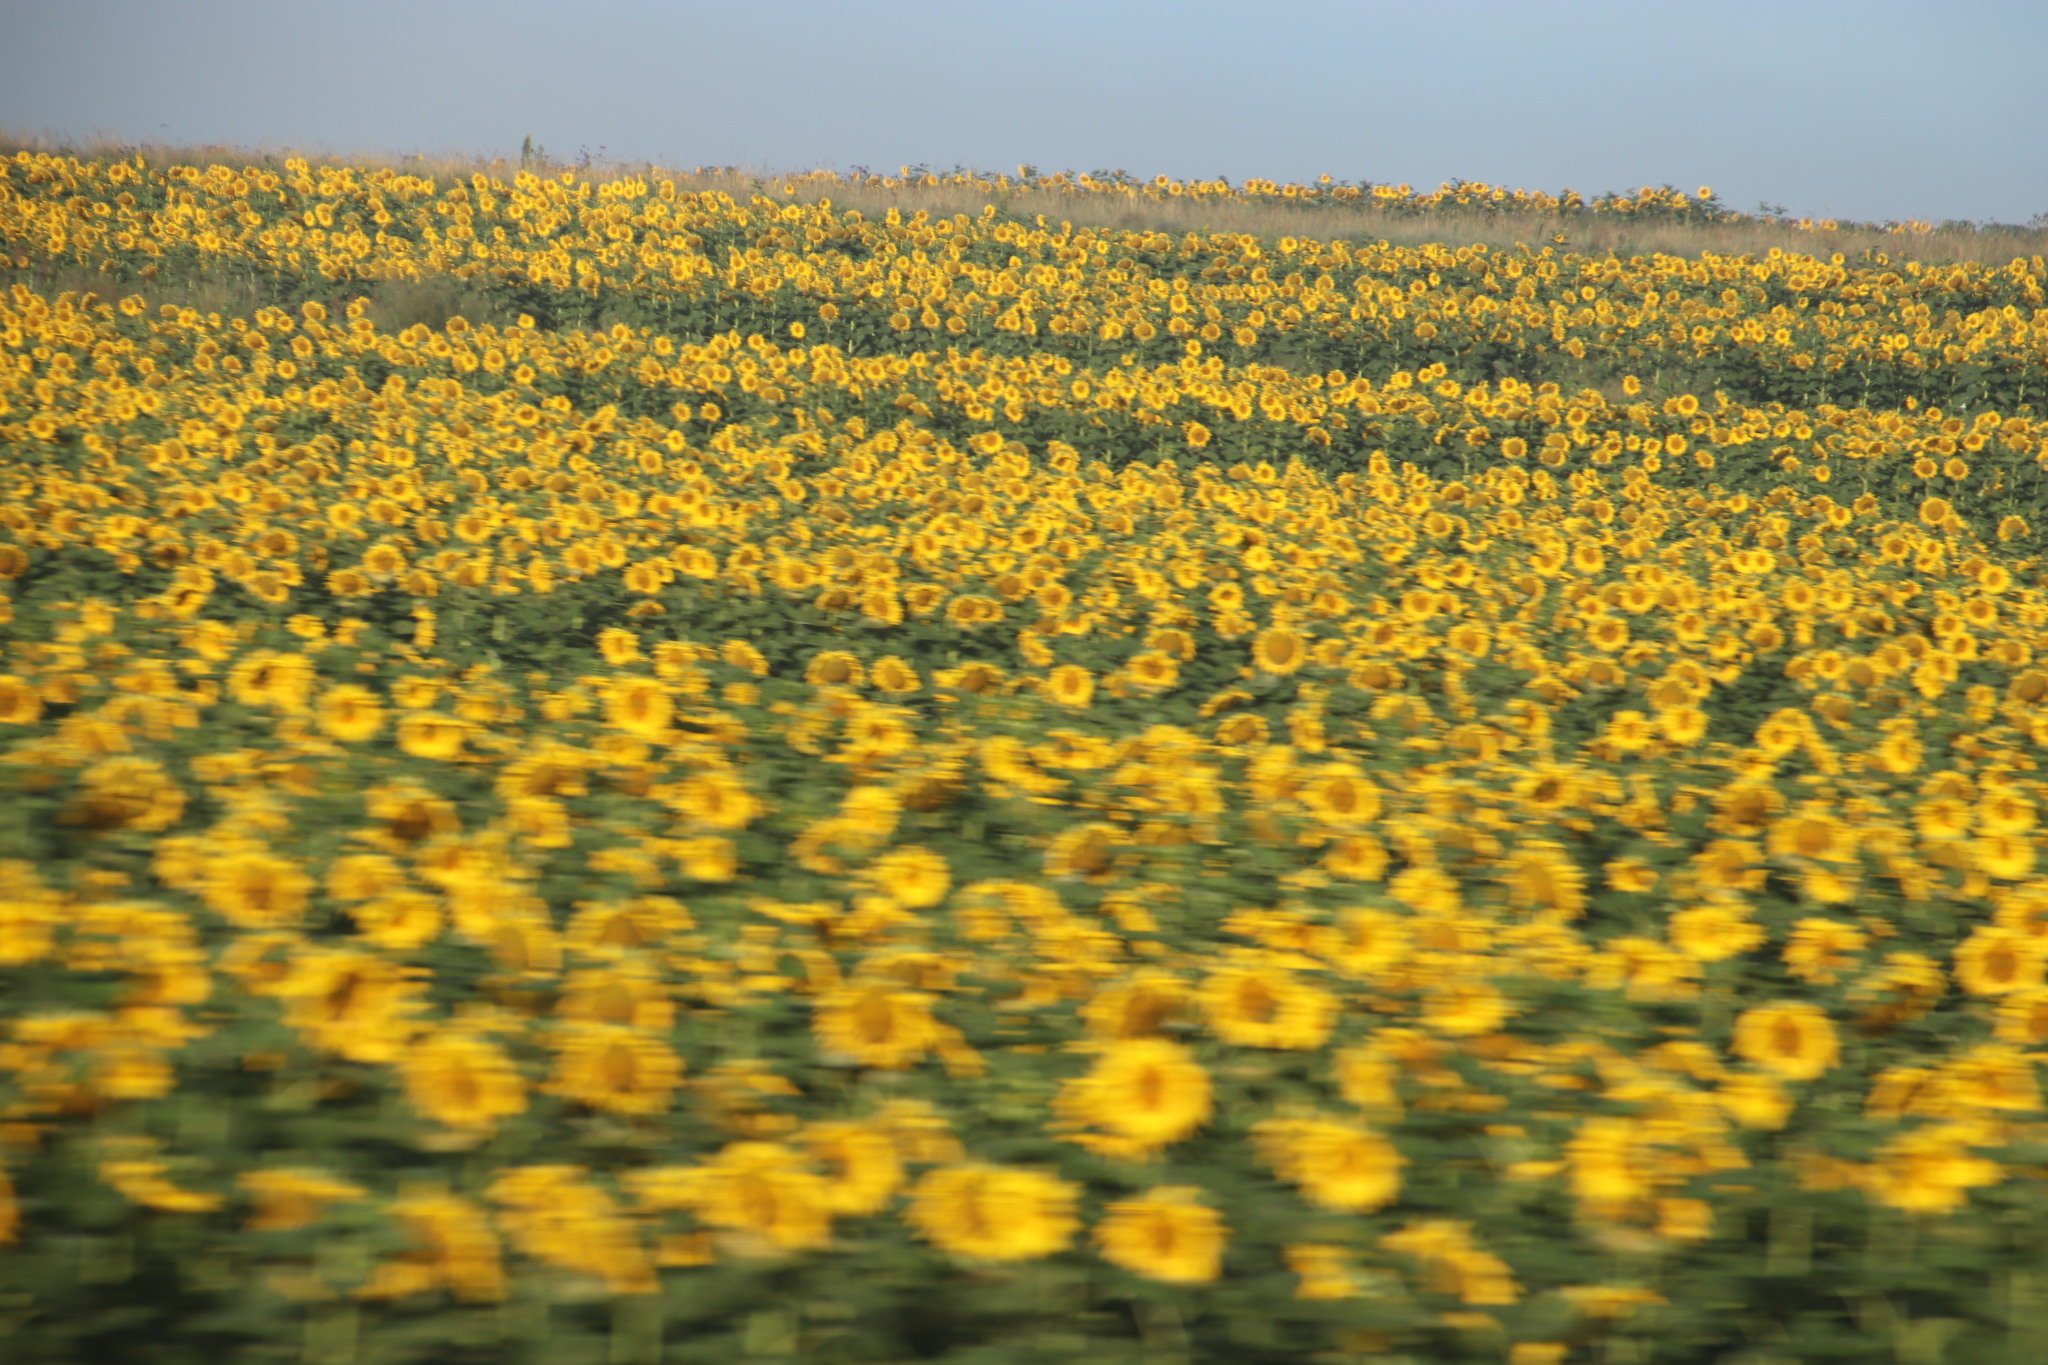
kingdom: Plantae
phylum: Tracheophyta
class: Magnoliopsida
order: Asterales
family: Asteraceae
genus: Helianthus
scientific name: Helianthus annuus
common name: Sunflower
